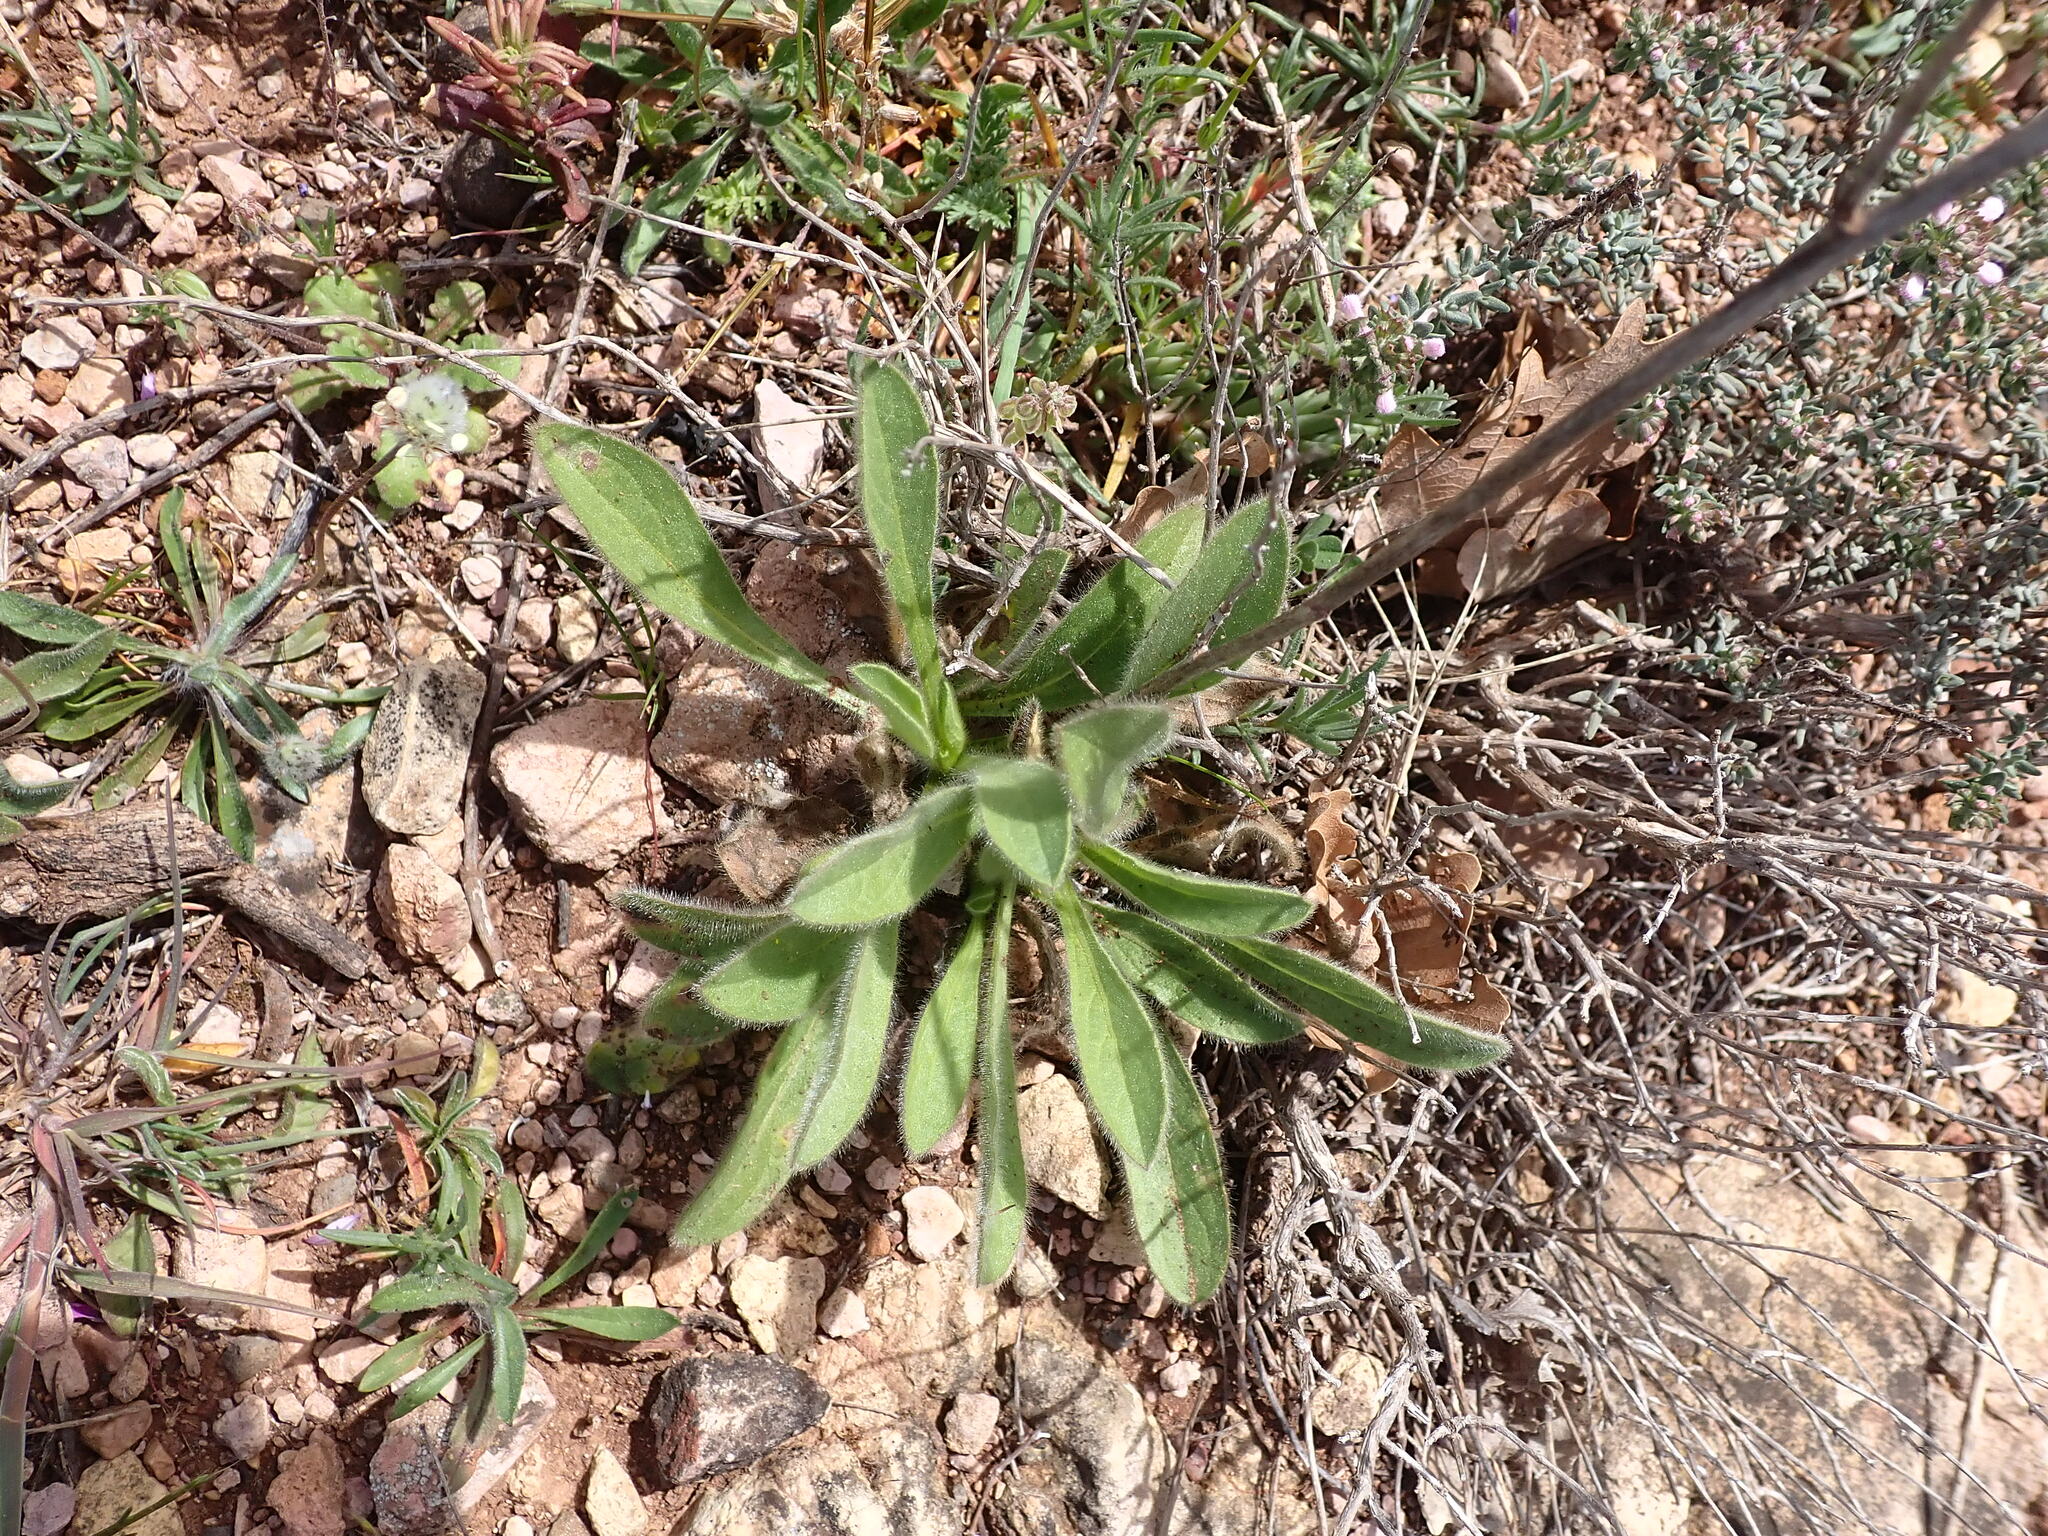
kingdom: Plantae
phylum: Tracheophyta
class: Magnoliopsida
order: Asterales
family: Asteraceae
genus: Pallenis
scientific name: Pallenis spinosa
